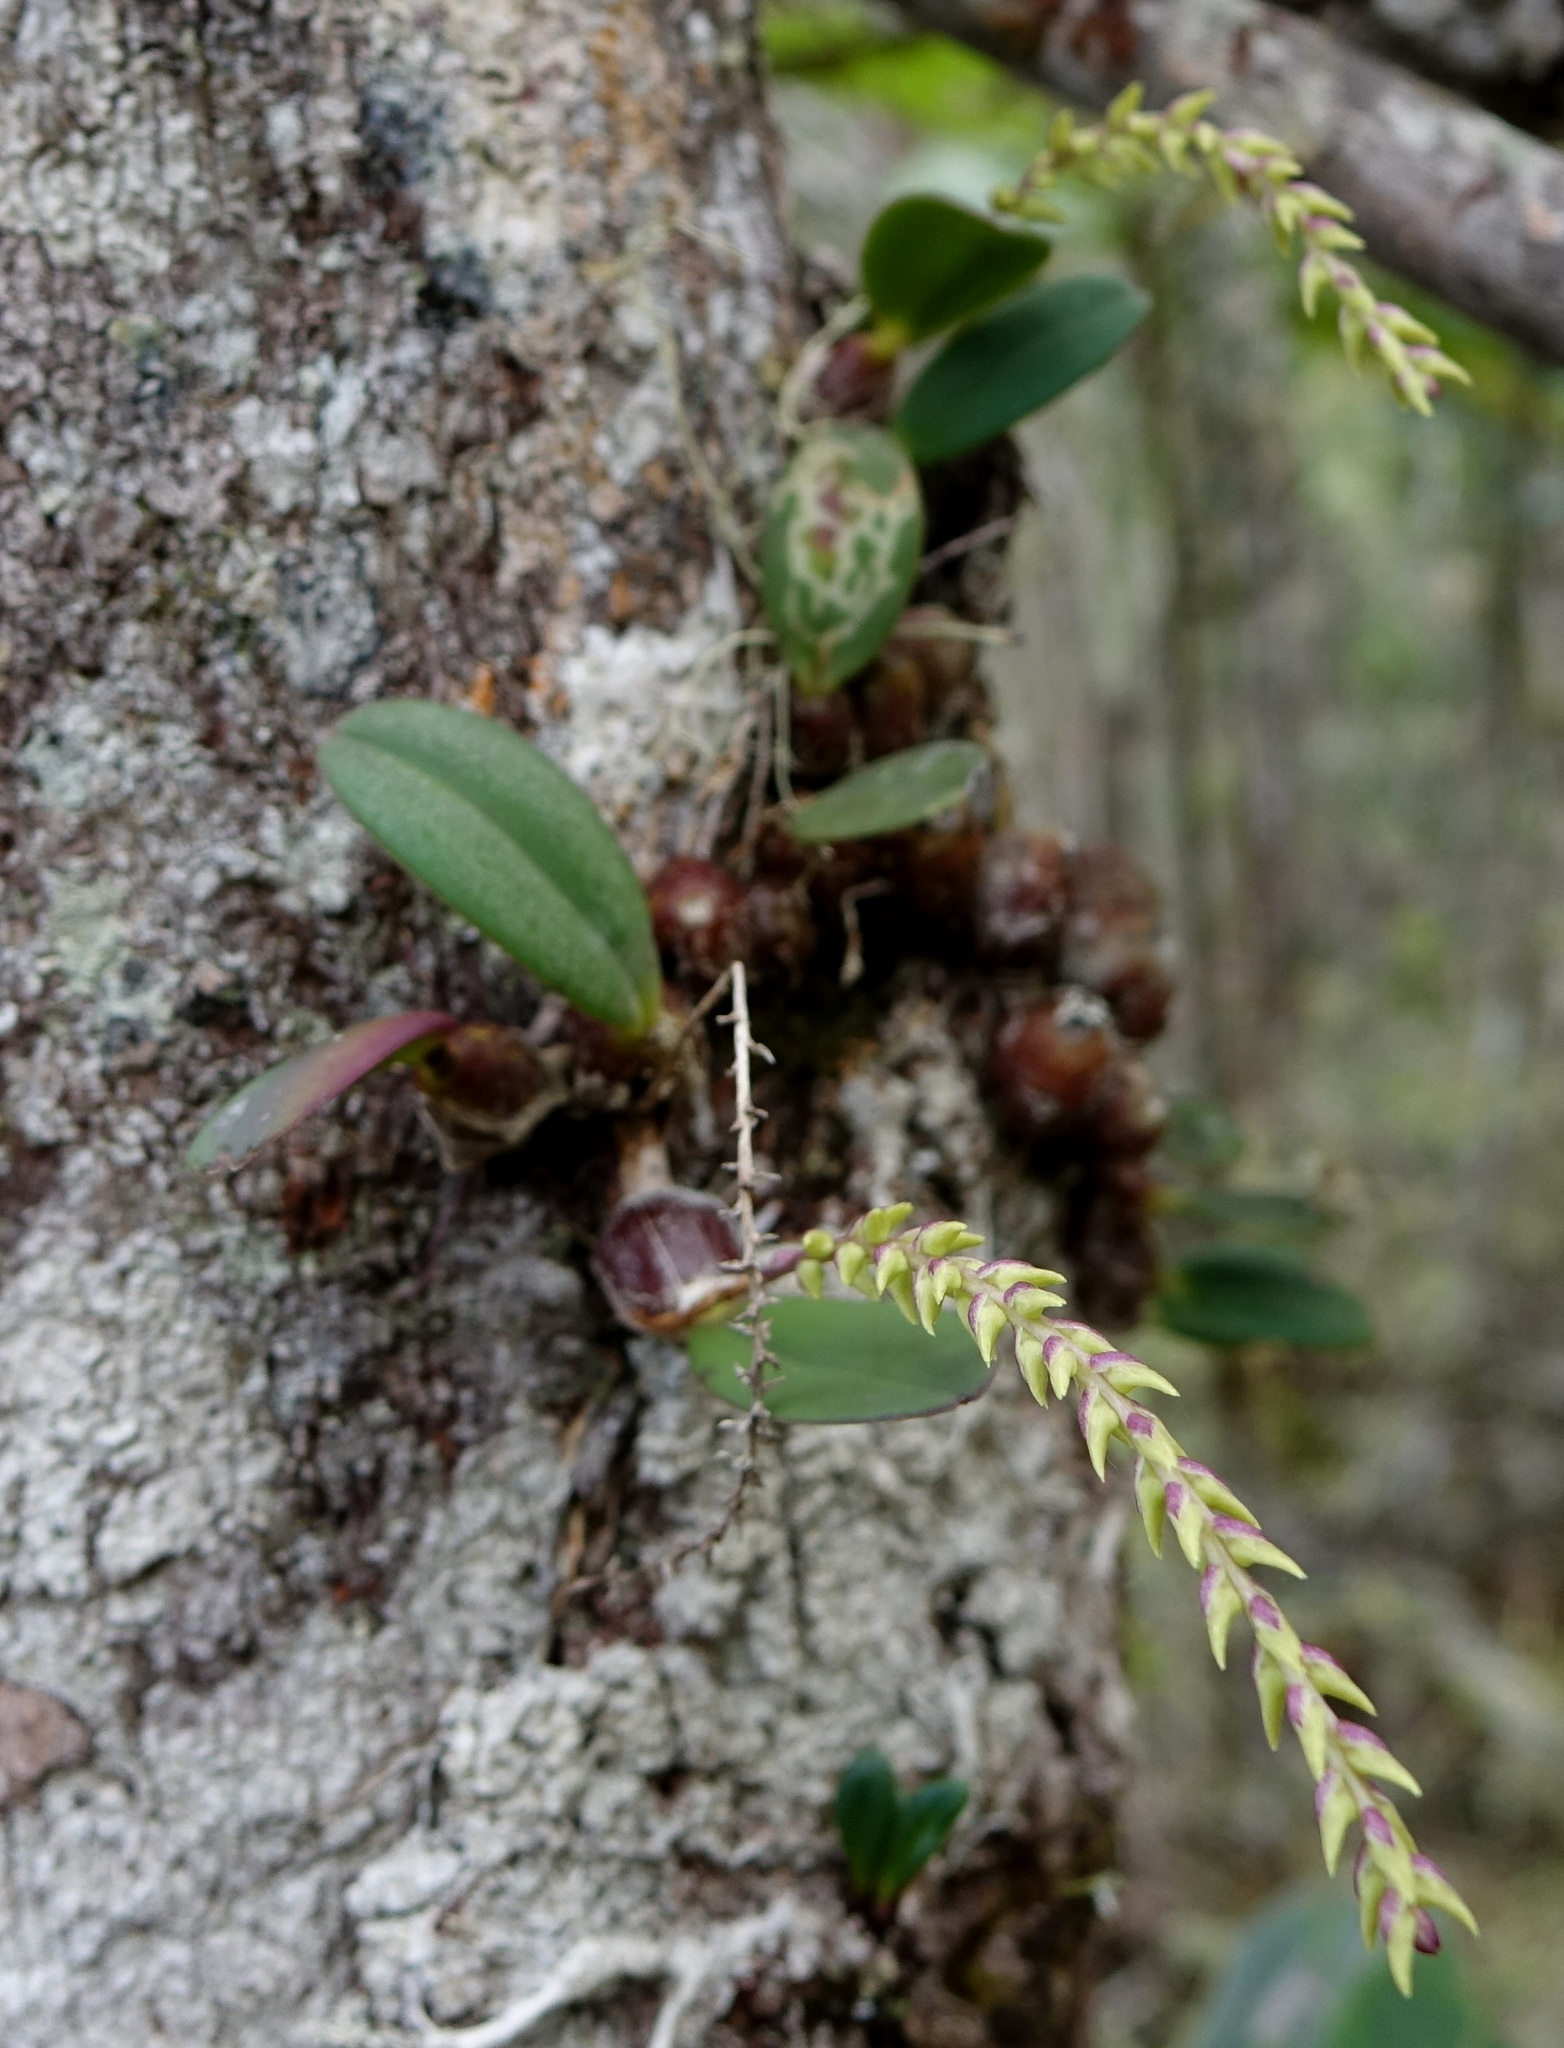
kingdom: Plantae
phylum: Tracheophyta
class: Liliopsida
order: Asparagales
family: Orchidaceae
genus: Bulbophyllum
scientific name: Bulbophyllum leptostachyum
